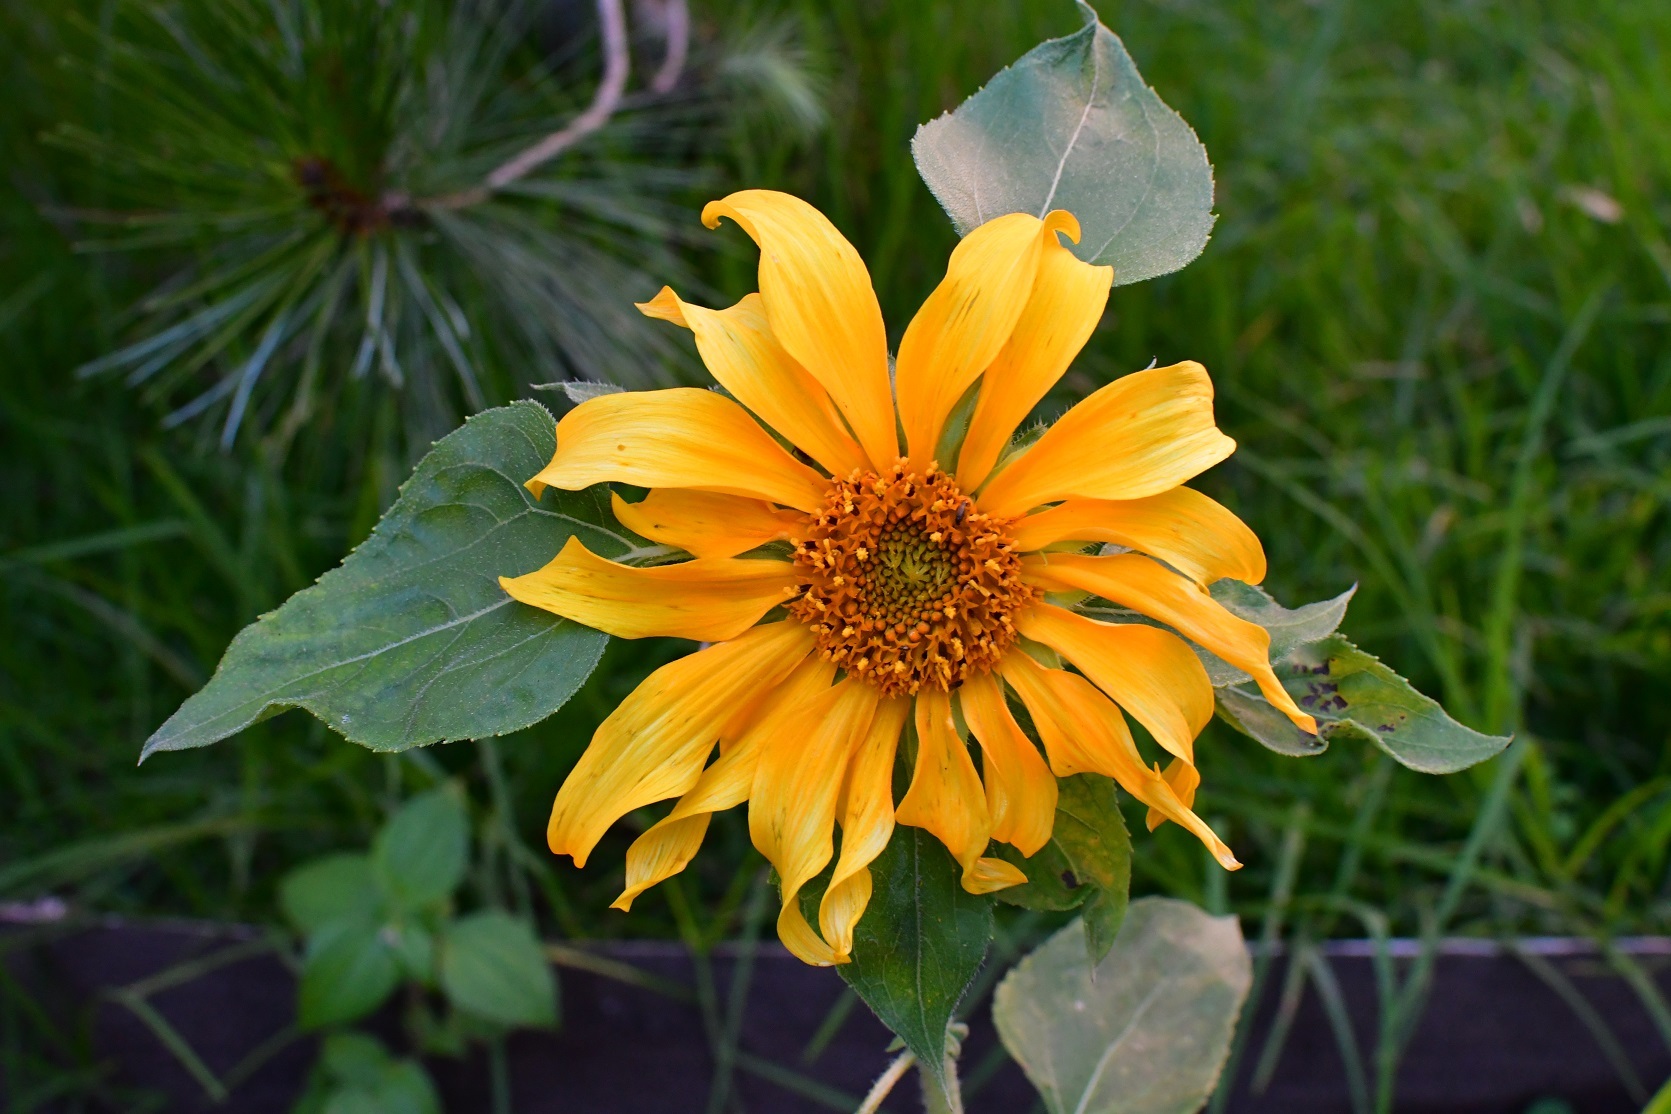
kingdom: Plantae
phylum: Tracheophyta
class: Magnoliopsida
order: Asterales
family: Asteraceae
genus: Helianthus
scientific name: Helianthus annuus
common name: Sunflower
